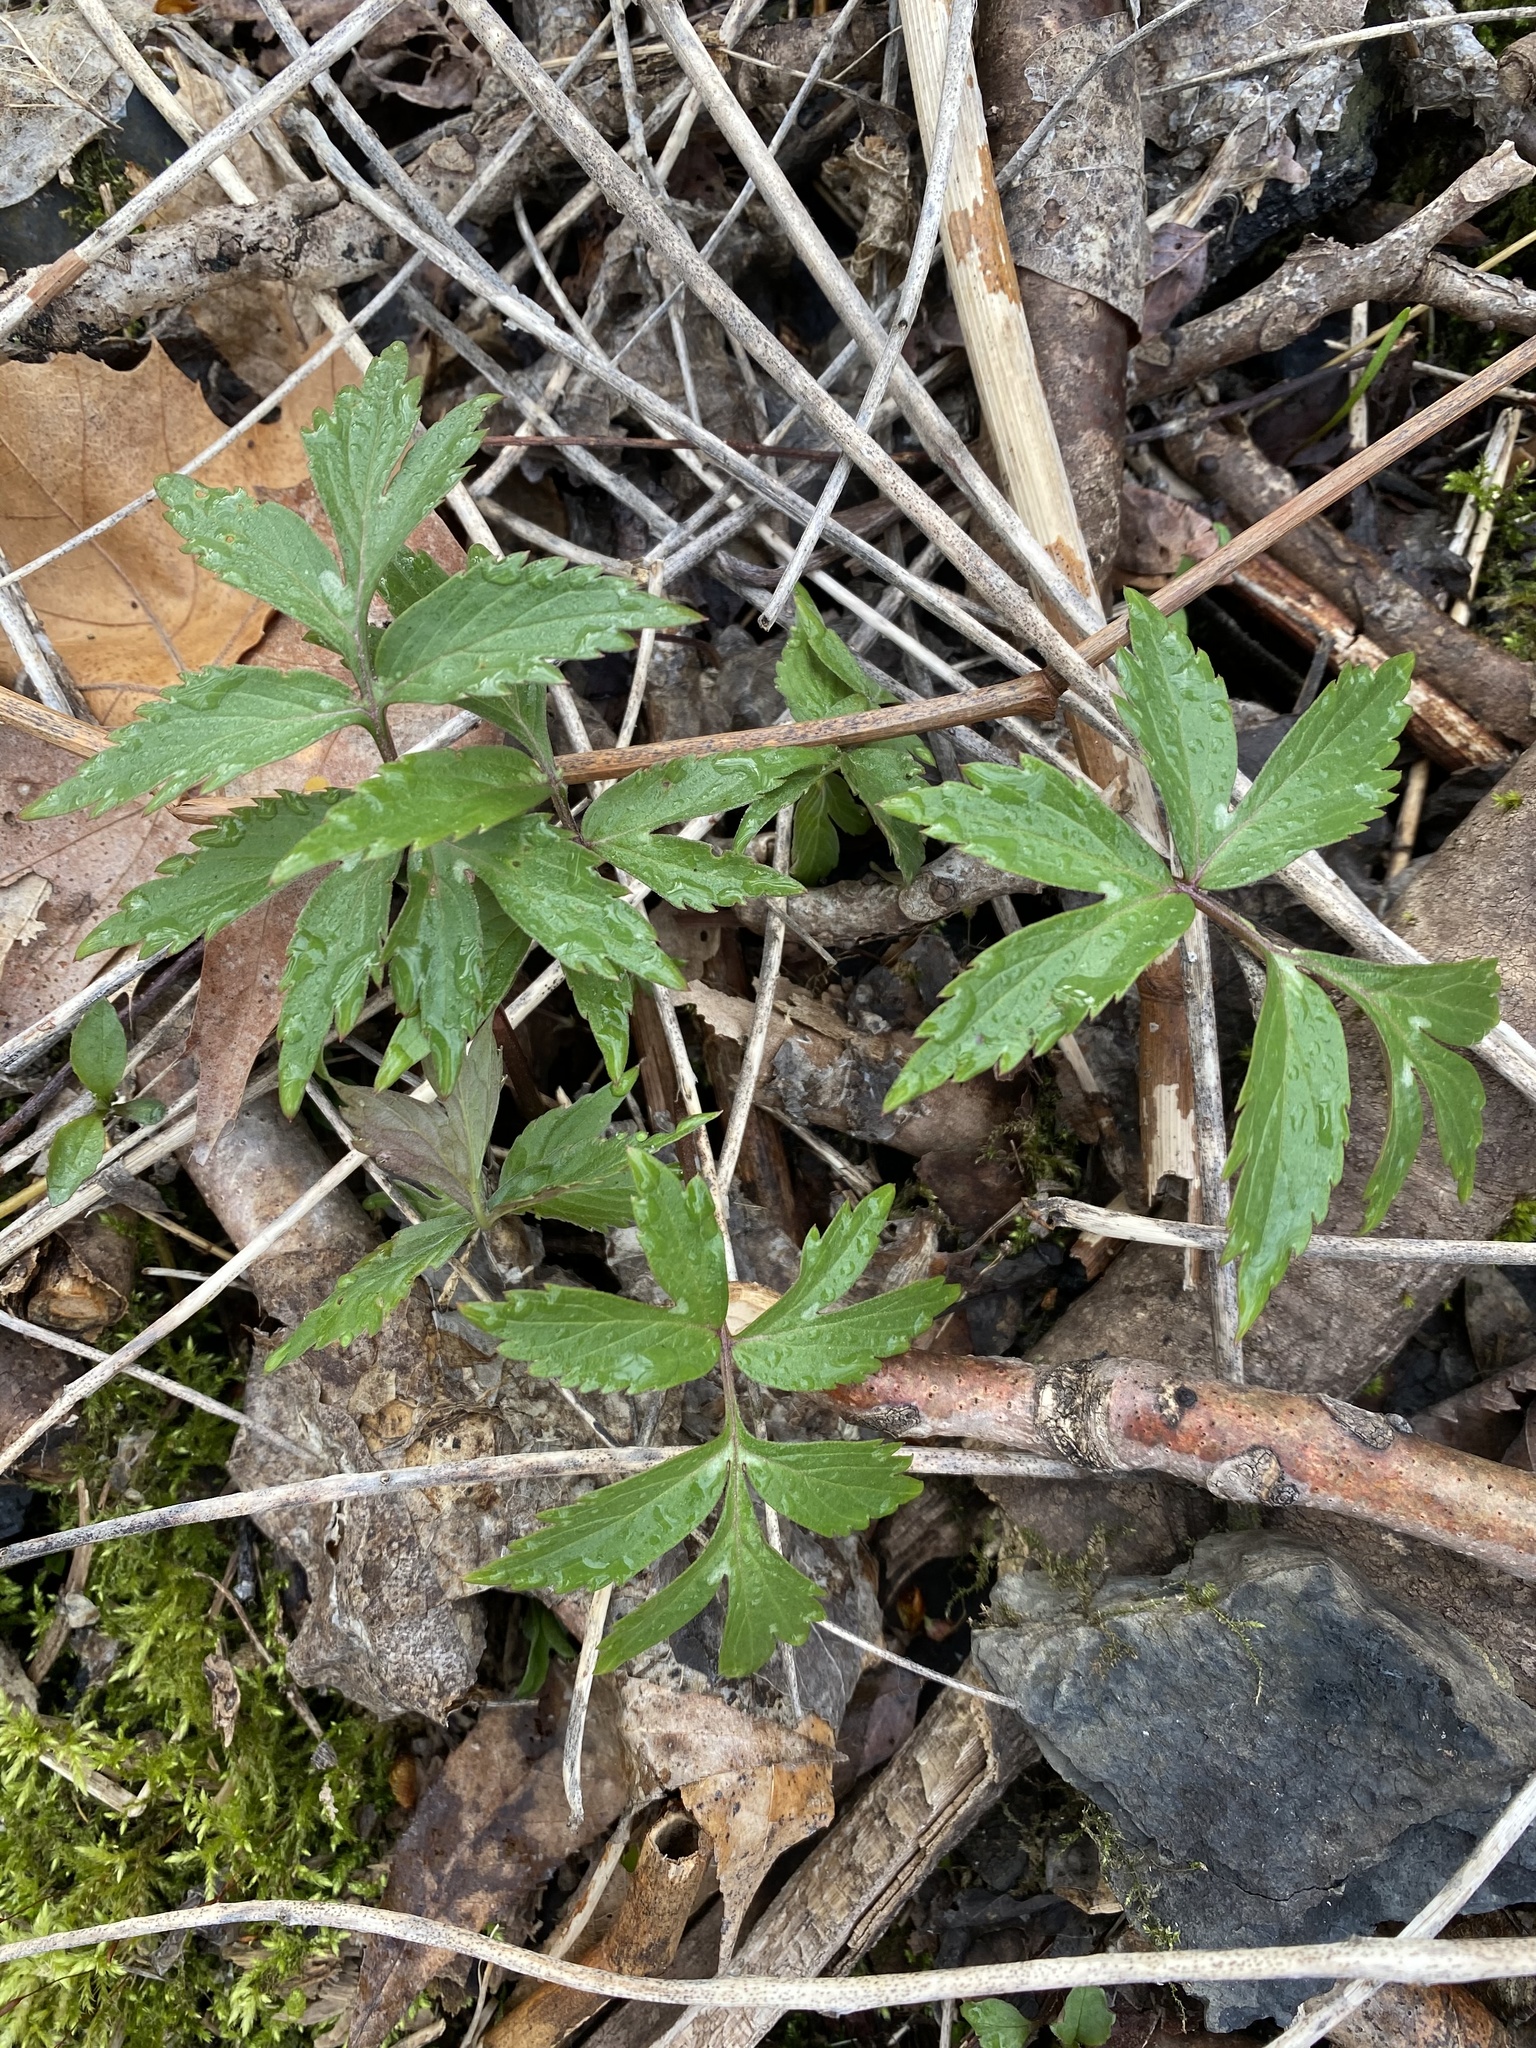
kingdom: Plantae
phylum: Tracheophyta
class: Magnoliopsida
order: Boraginales
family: Hydrophyllaceae
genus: Hydrophyllum
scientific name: Hydrophyllum virginianum
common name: Virginia waterleaf
